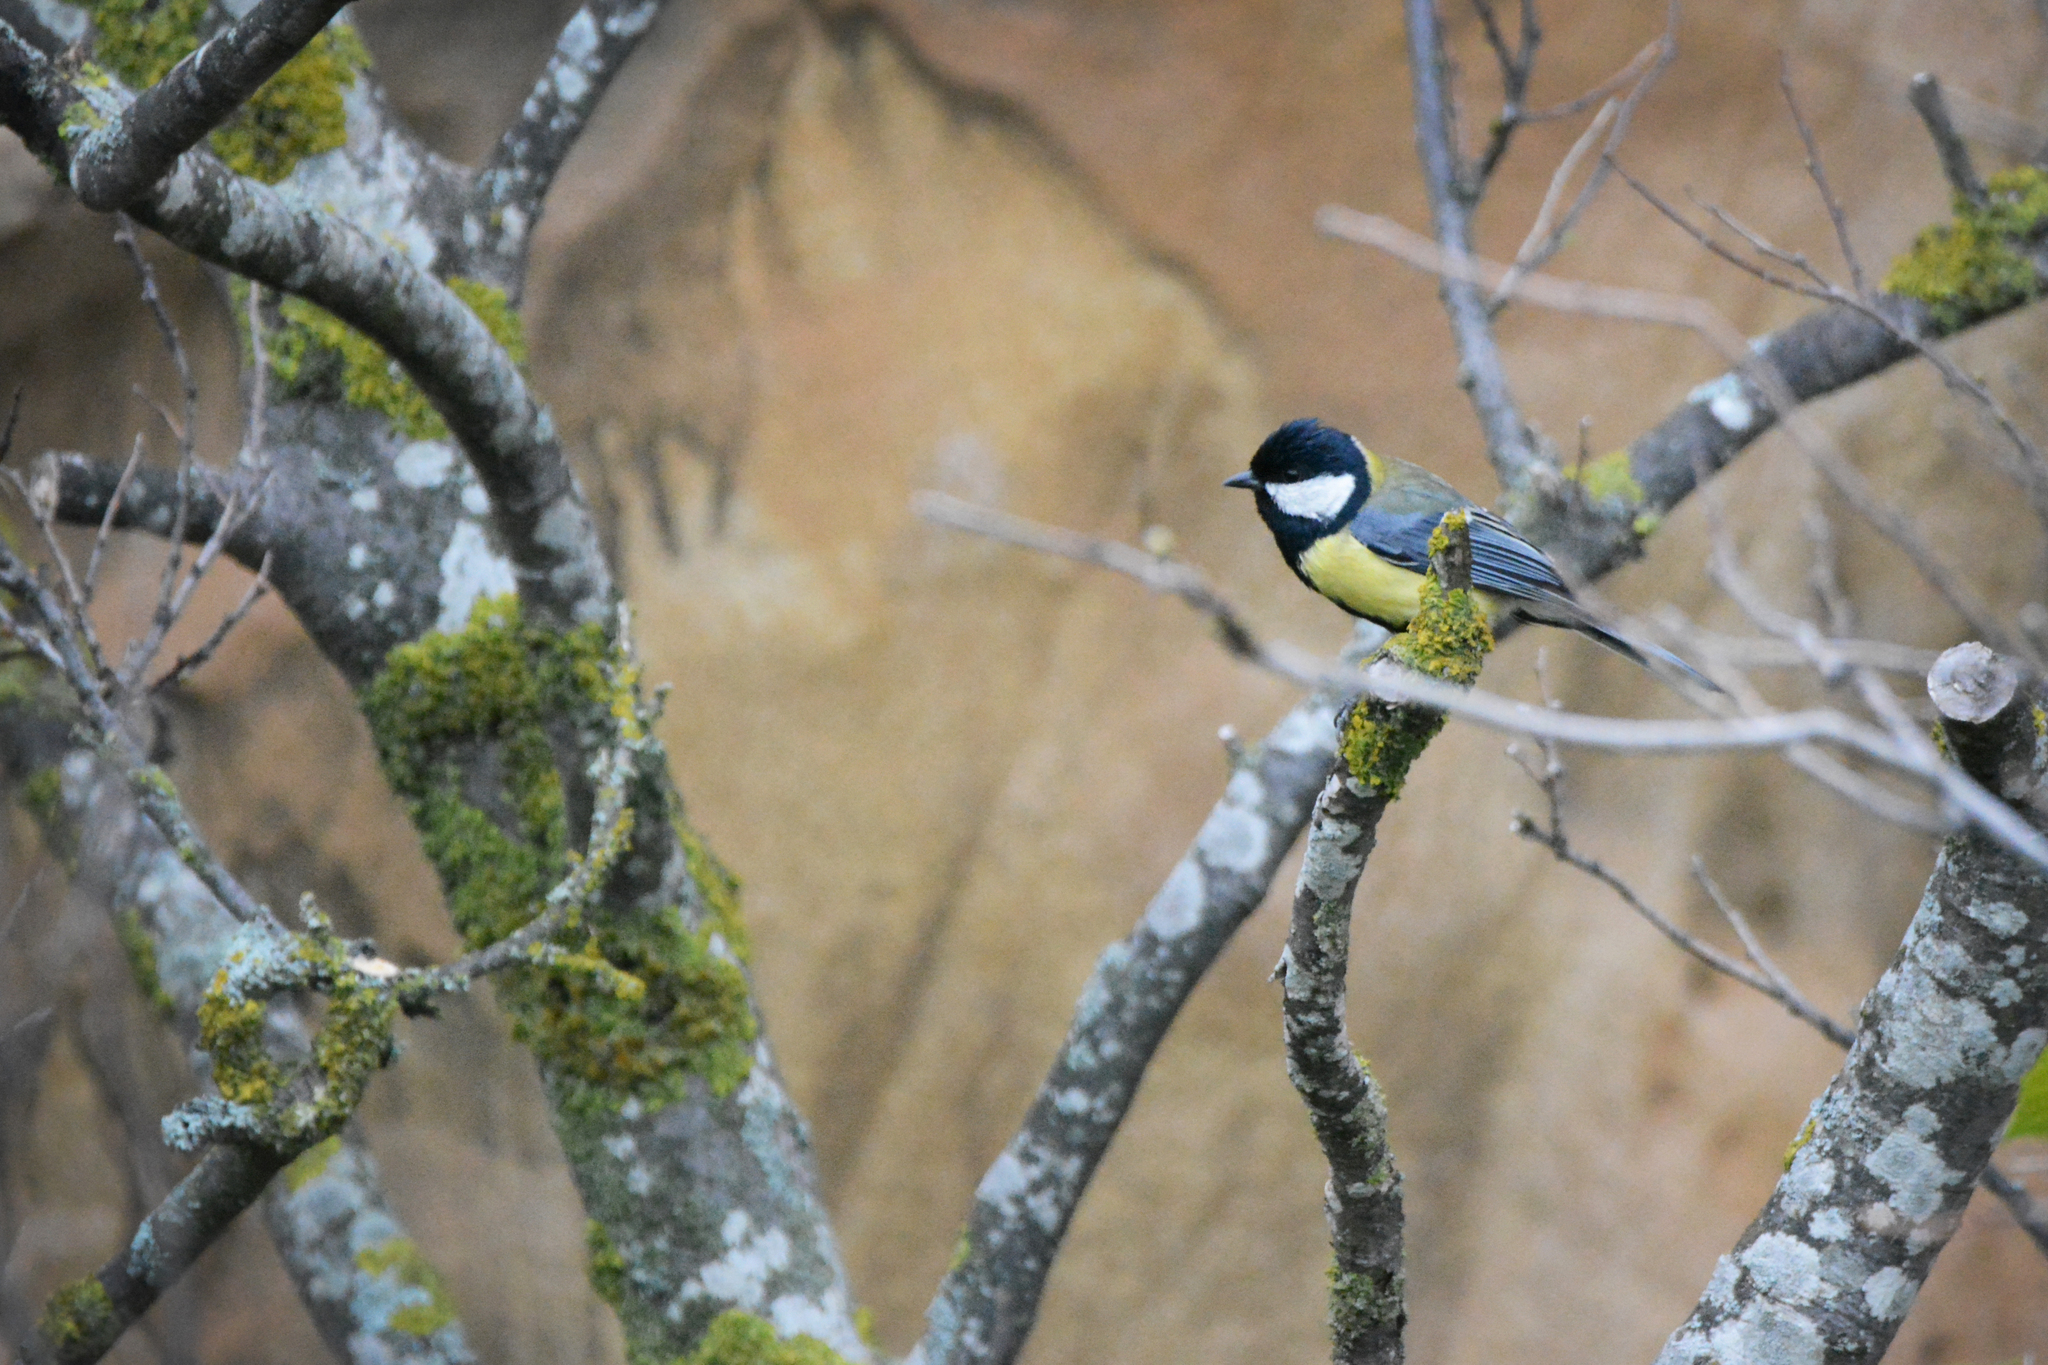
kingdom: Animalia
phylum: Chordata
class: Aves
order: Passeriformes
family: Paridae
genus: Parus
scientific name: Parus major
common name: Great tit
